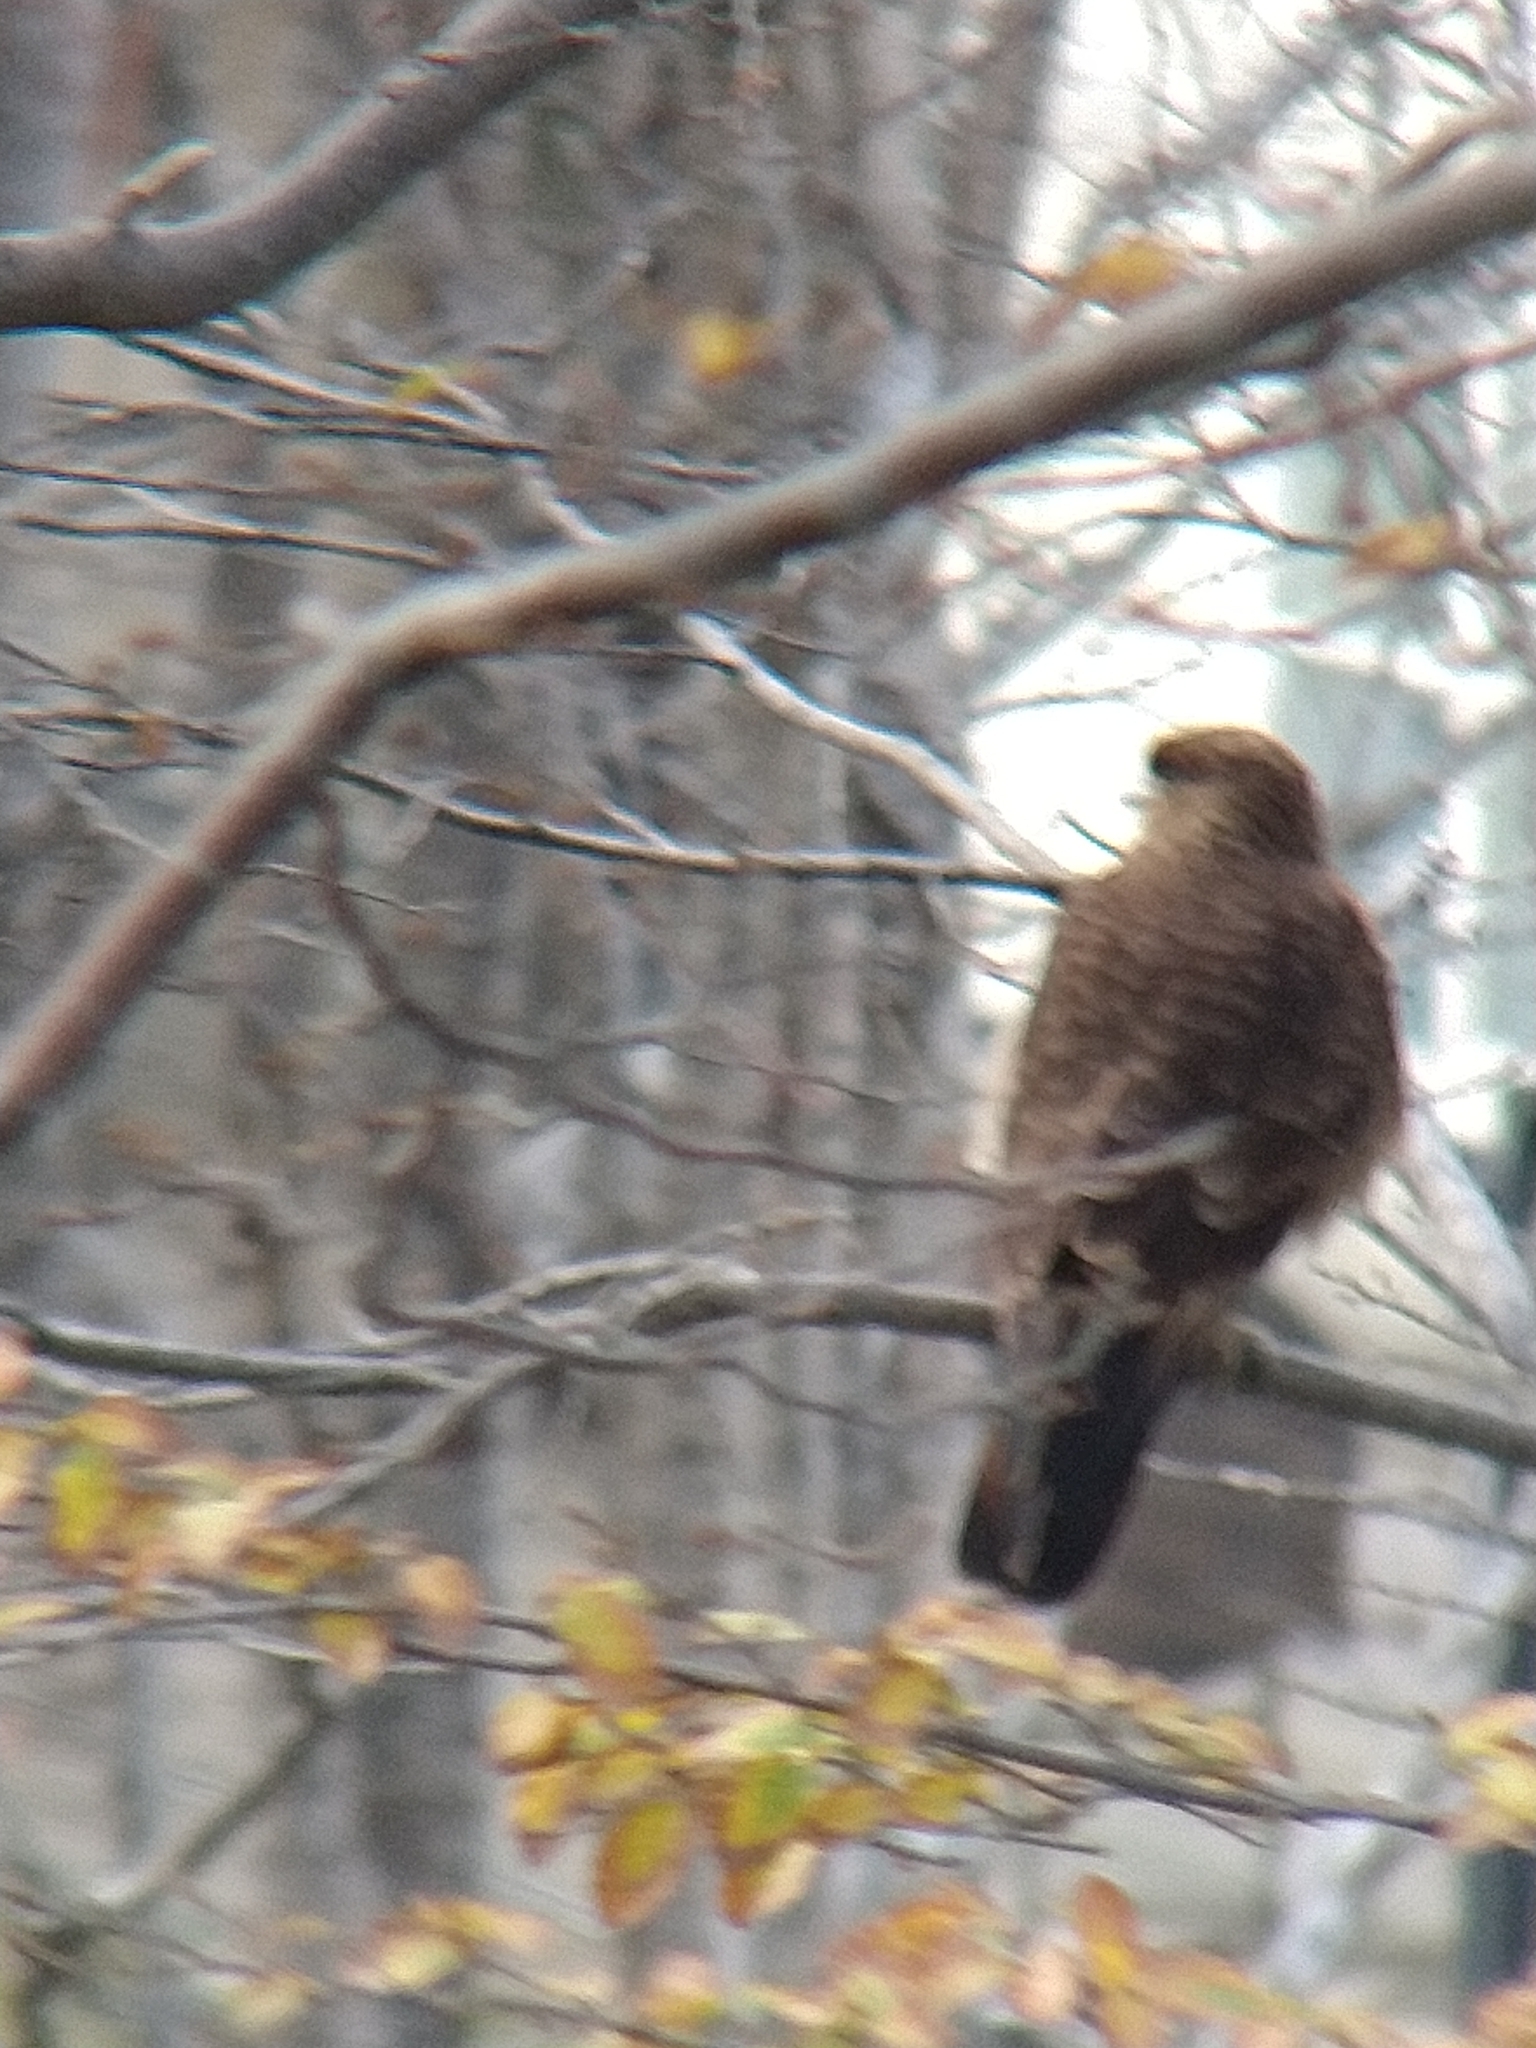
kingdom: Animalia
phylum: Chordata
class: Aves
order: Falconiformes
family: Falconidae
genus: Daptrius
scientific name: Daptrius
